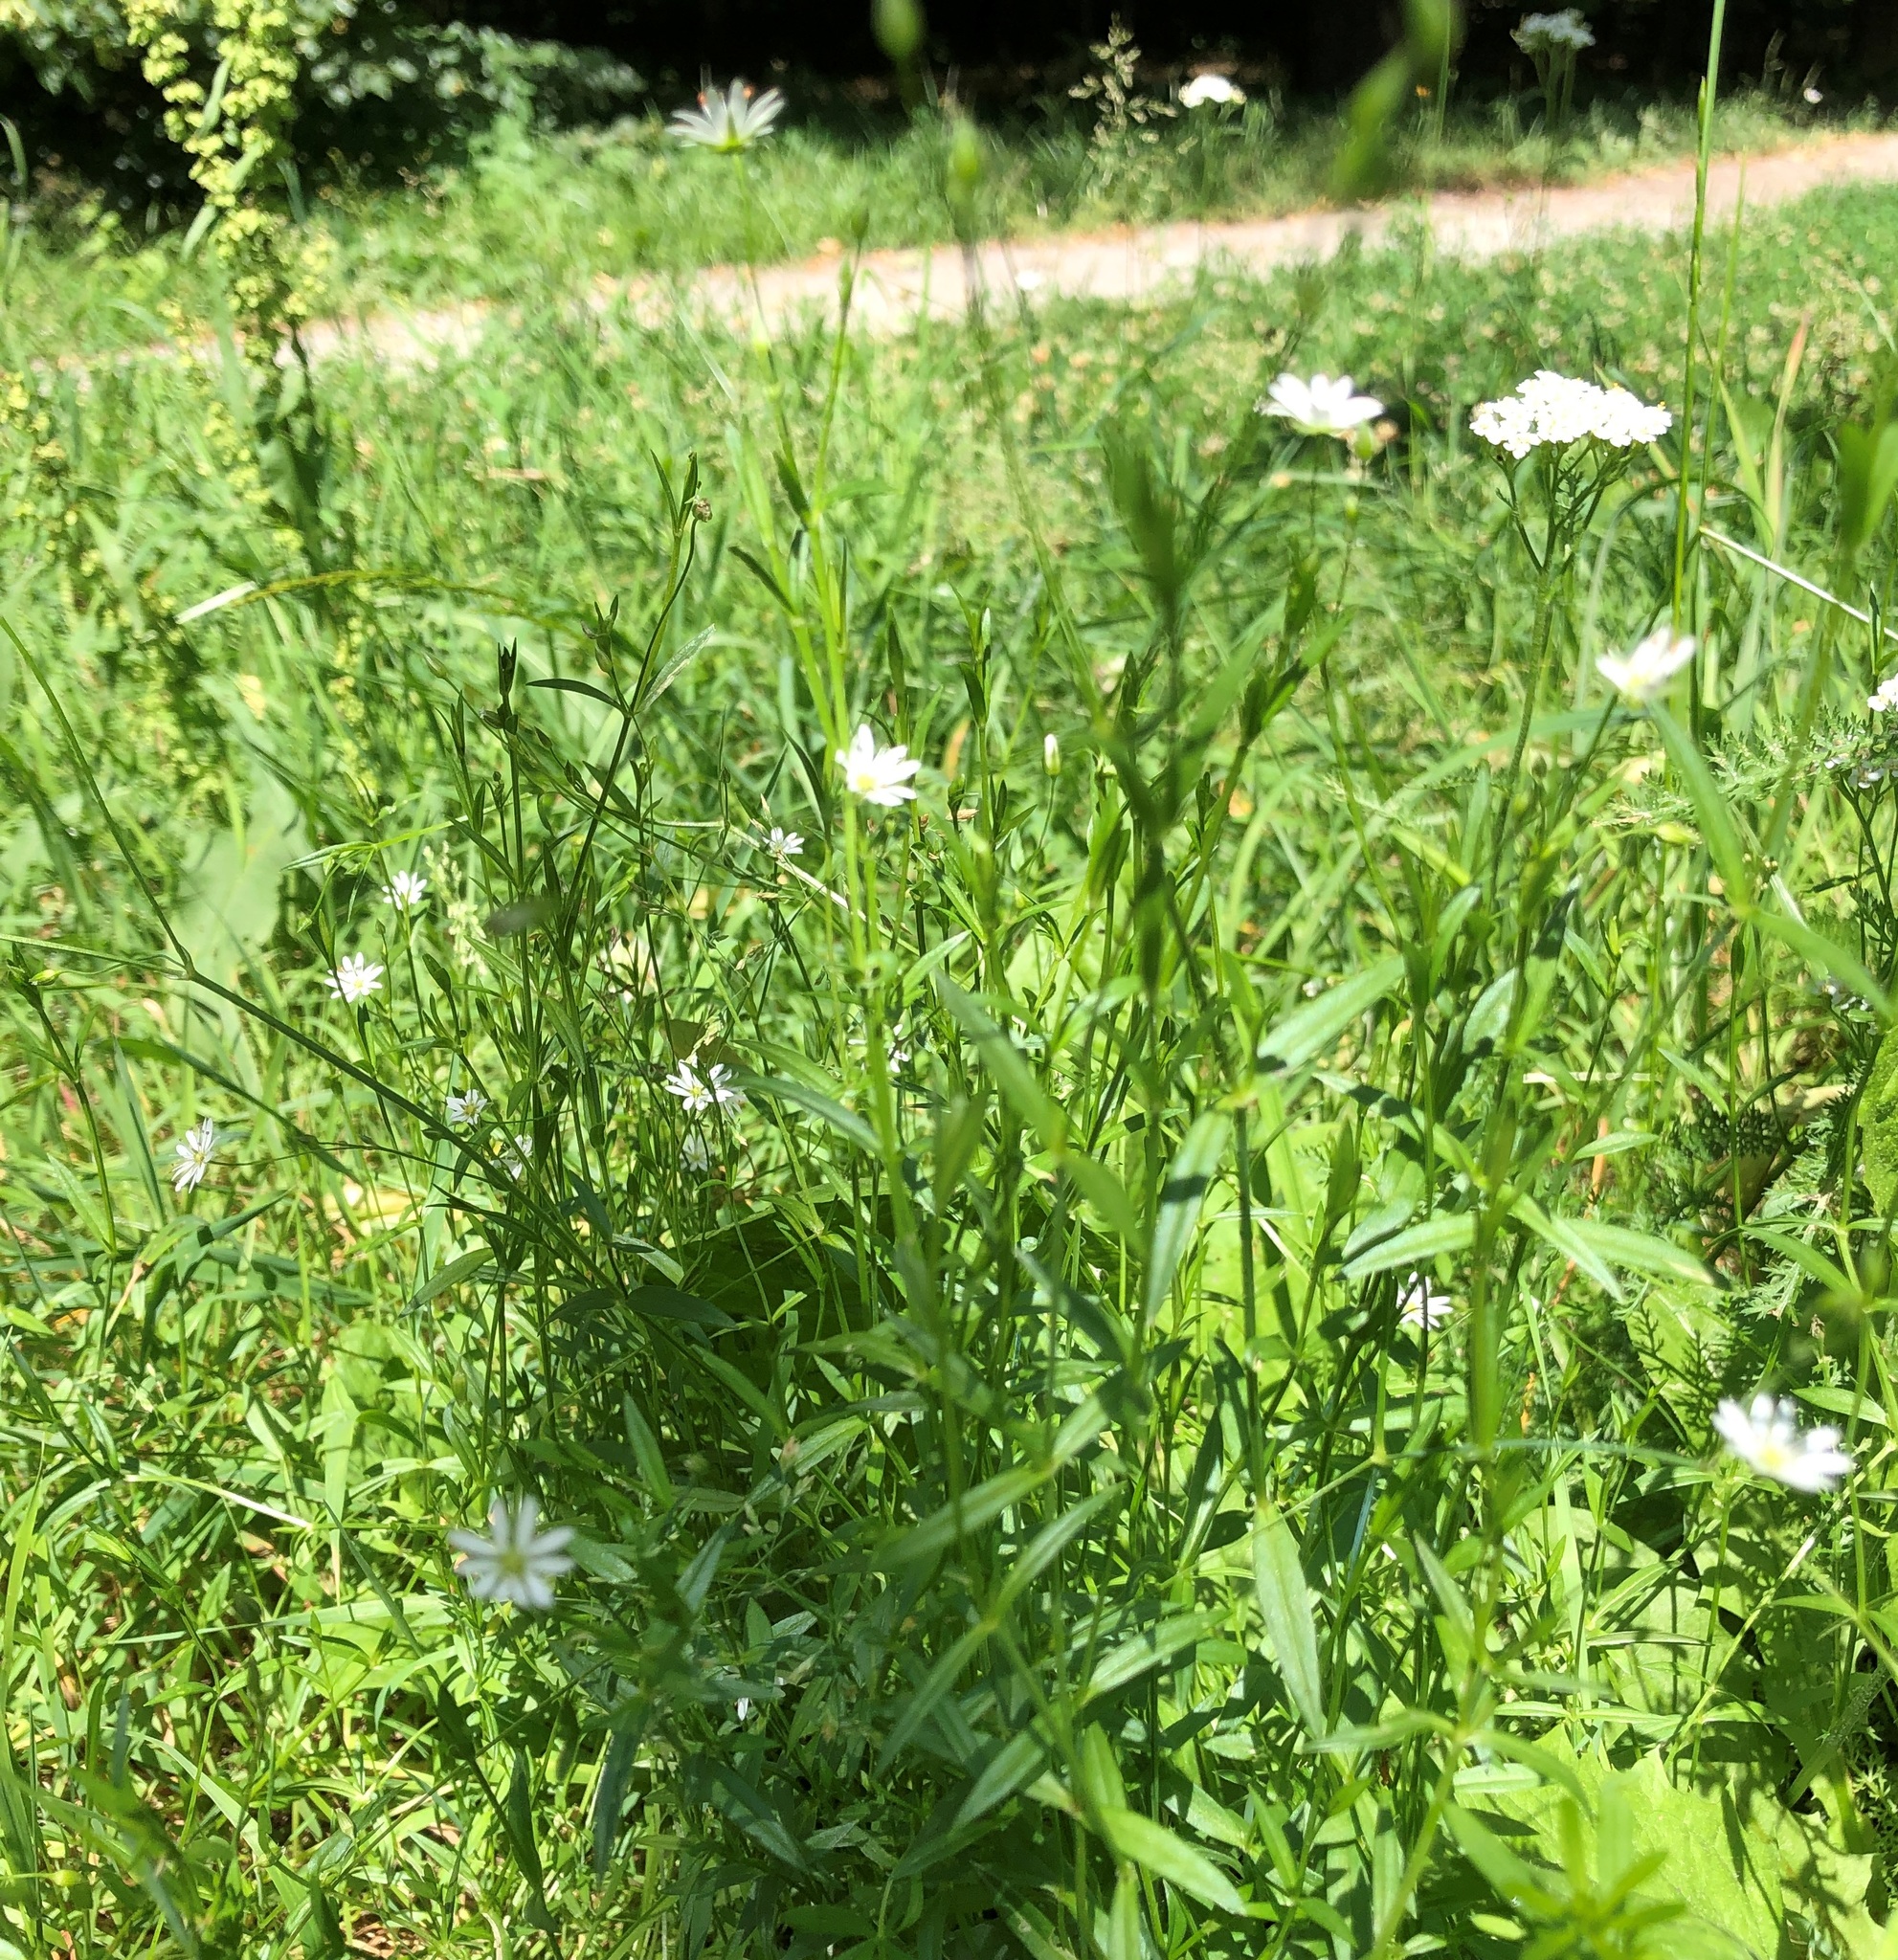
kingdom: Plantae
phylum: Tracheophyta
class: Magnoliopsida
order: Caryophyllales
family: Caryophyllaceae
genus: Stellaria
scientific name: Stellaria graminea
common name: Grass-like starwort
